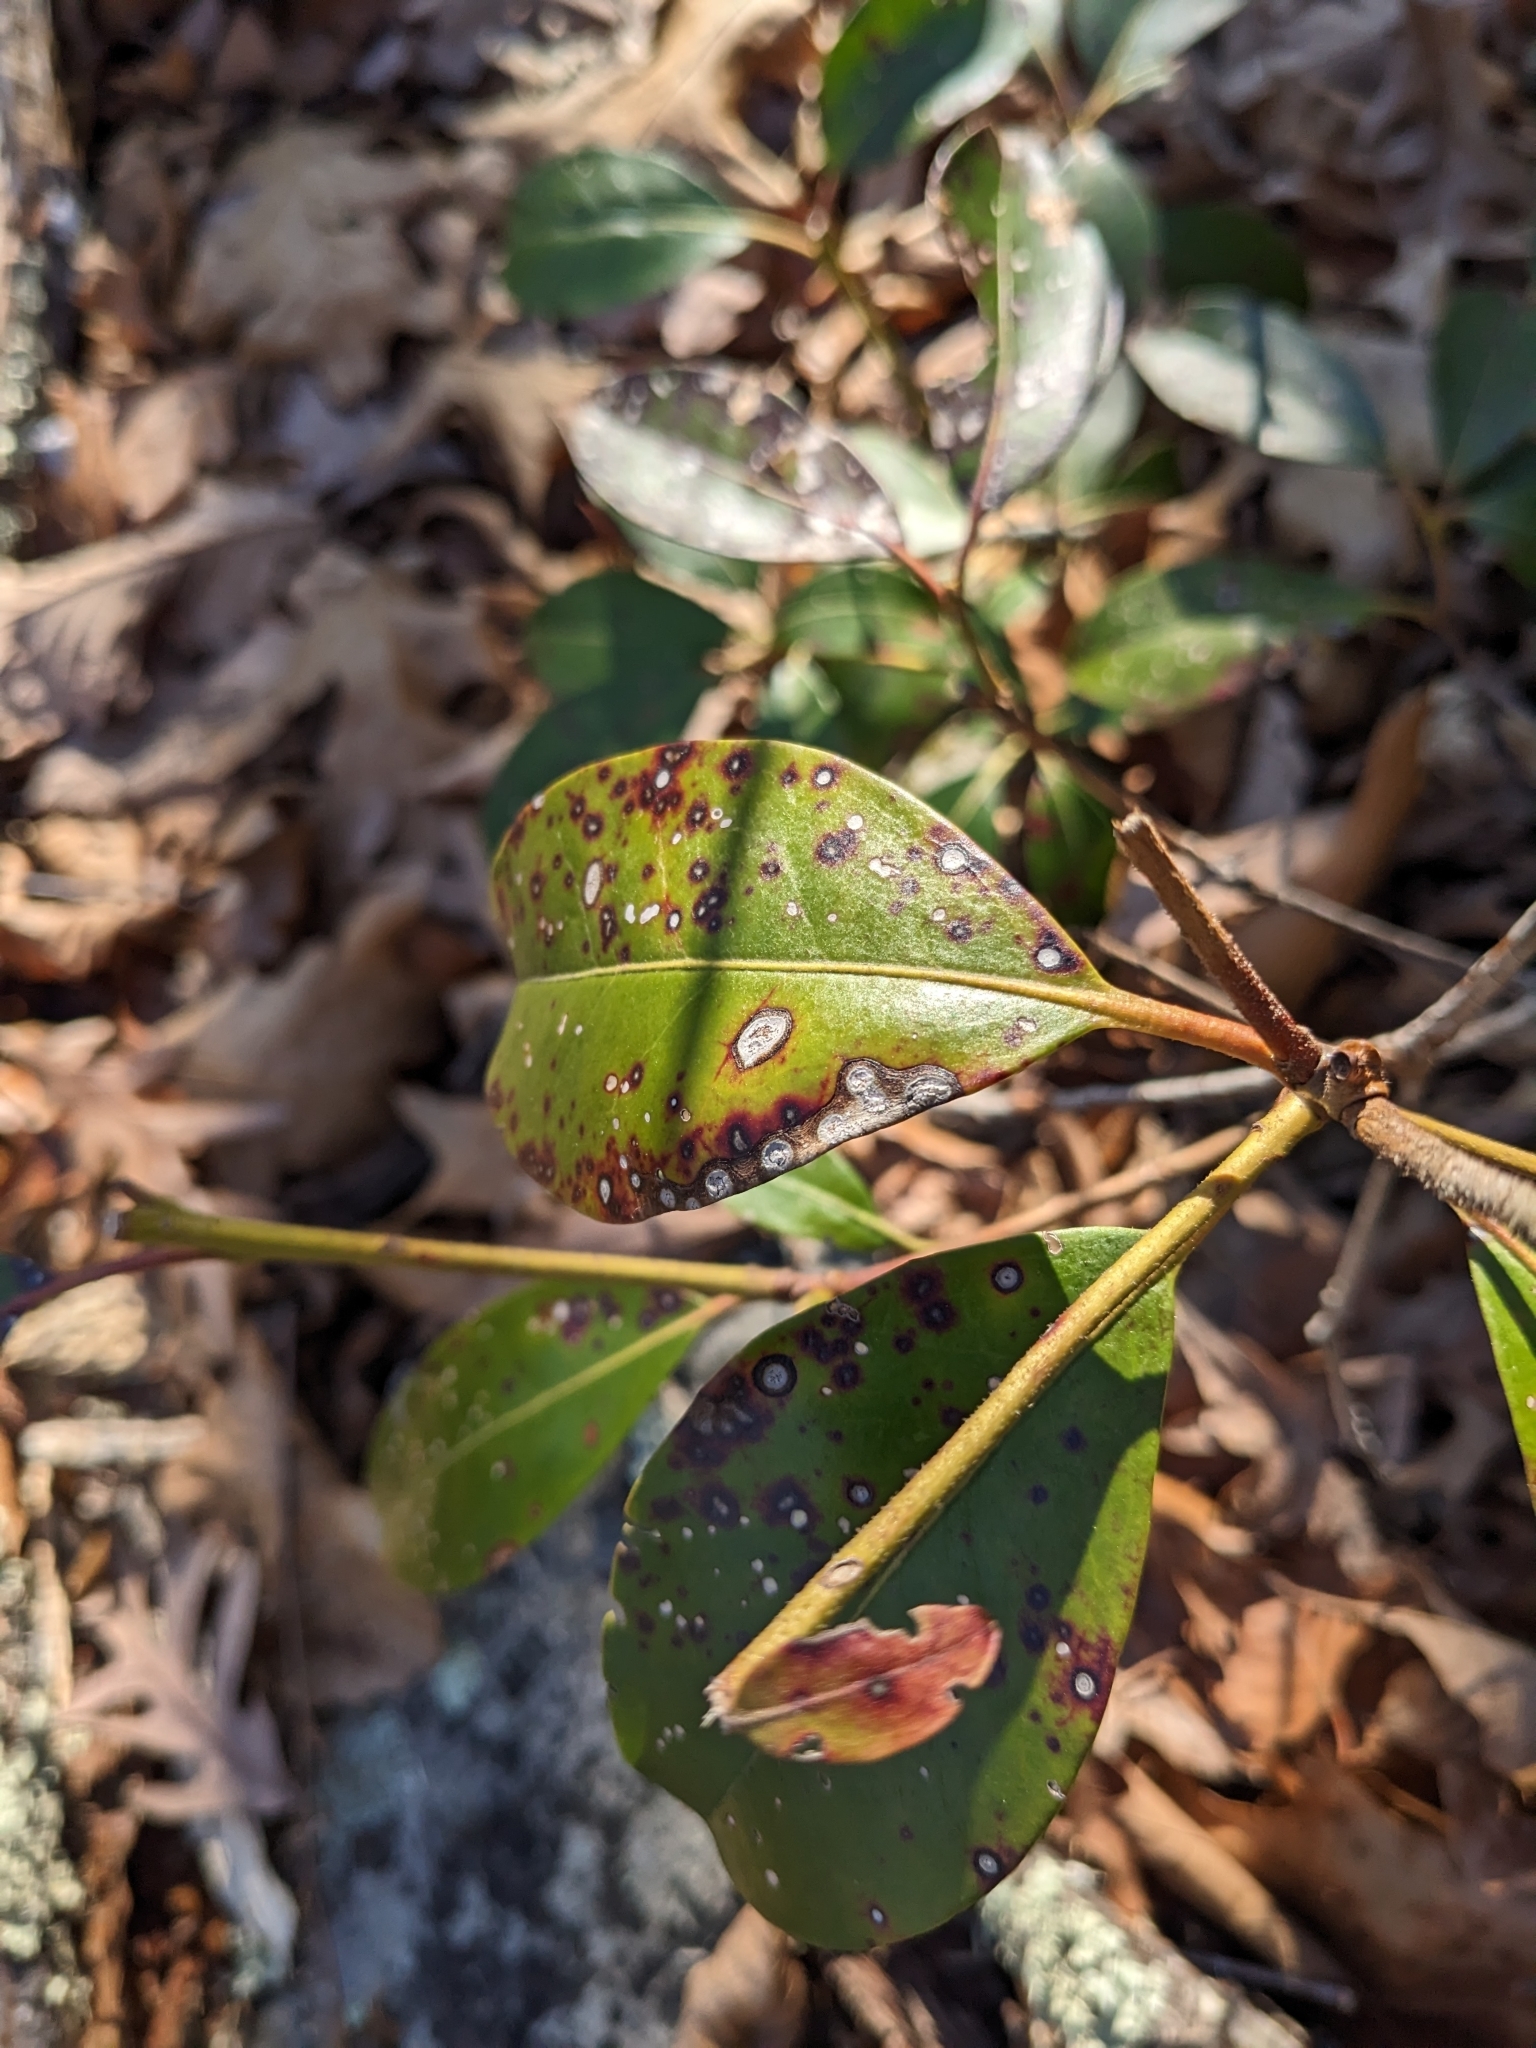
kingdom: Plantae
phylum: Tracheophyta
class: Magnoliopsida
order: Ericales
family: Ericaceae
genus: Kalmia
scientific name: Kalmia latifolia
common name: Mountain-laurel
